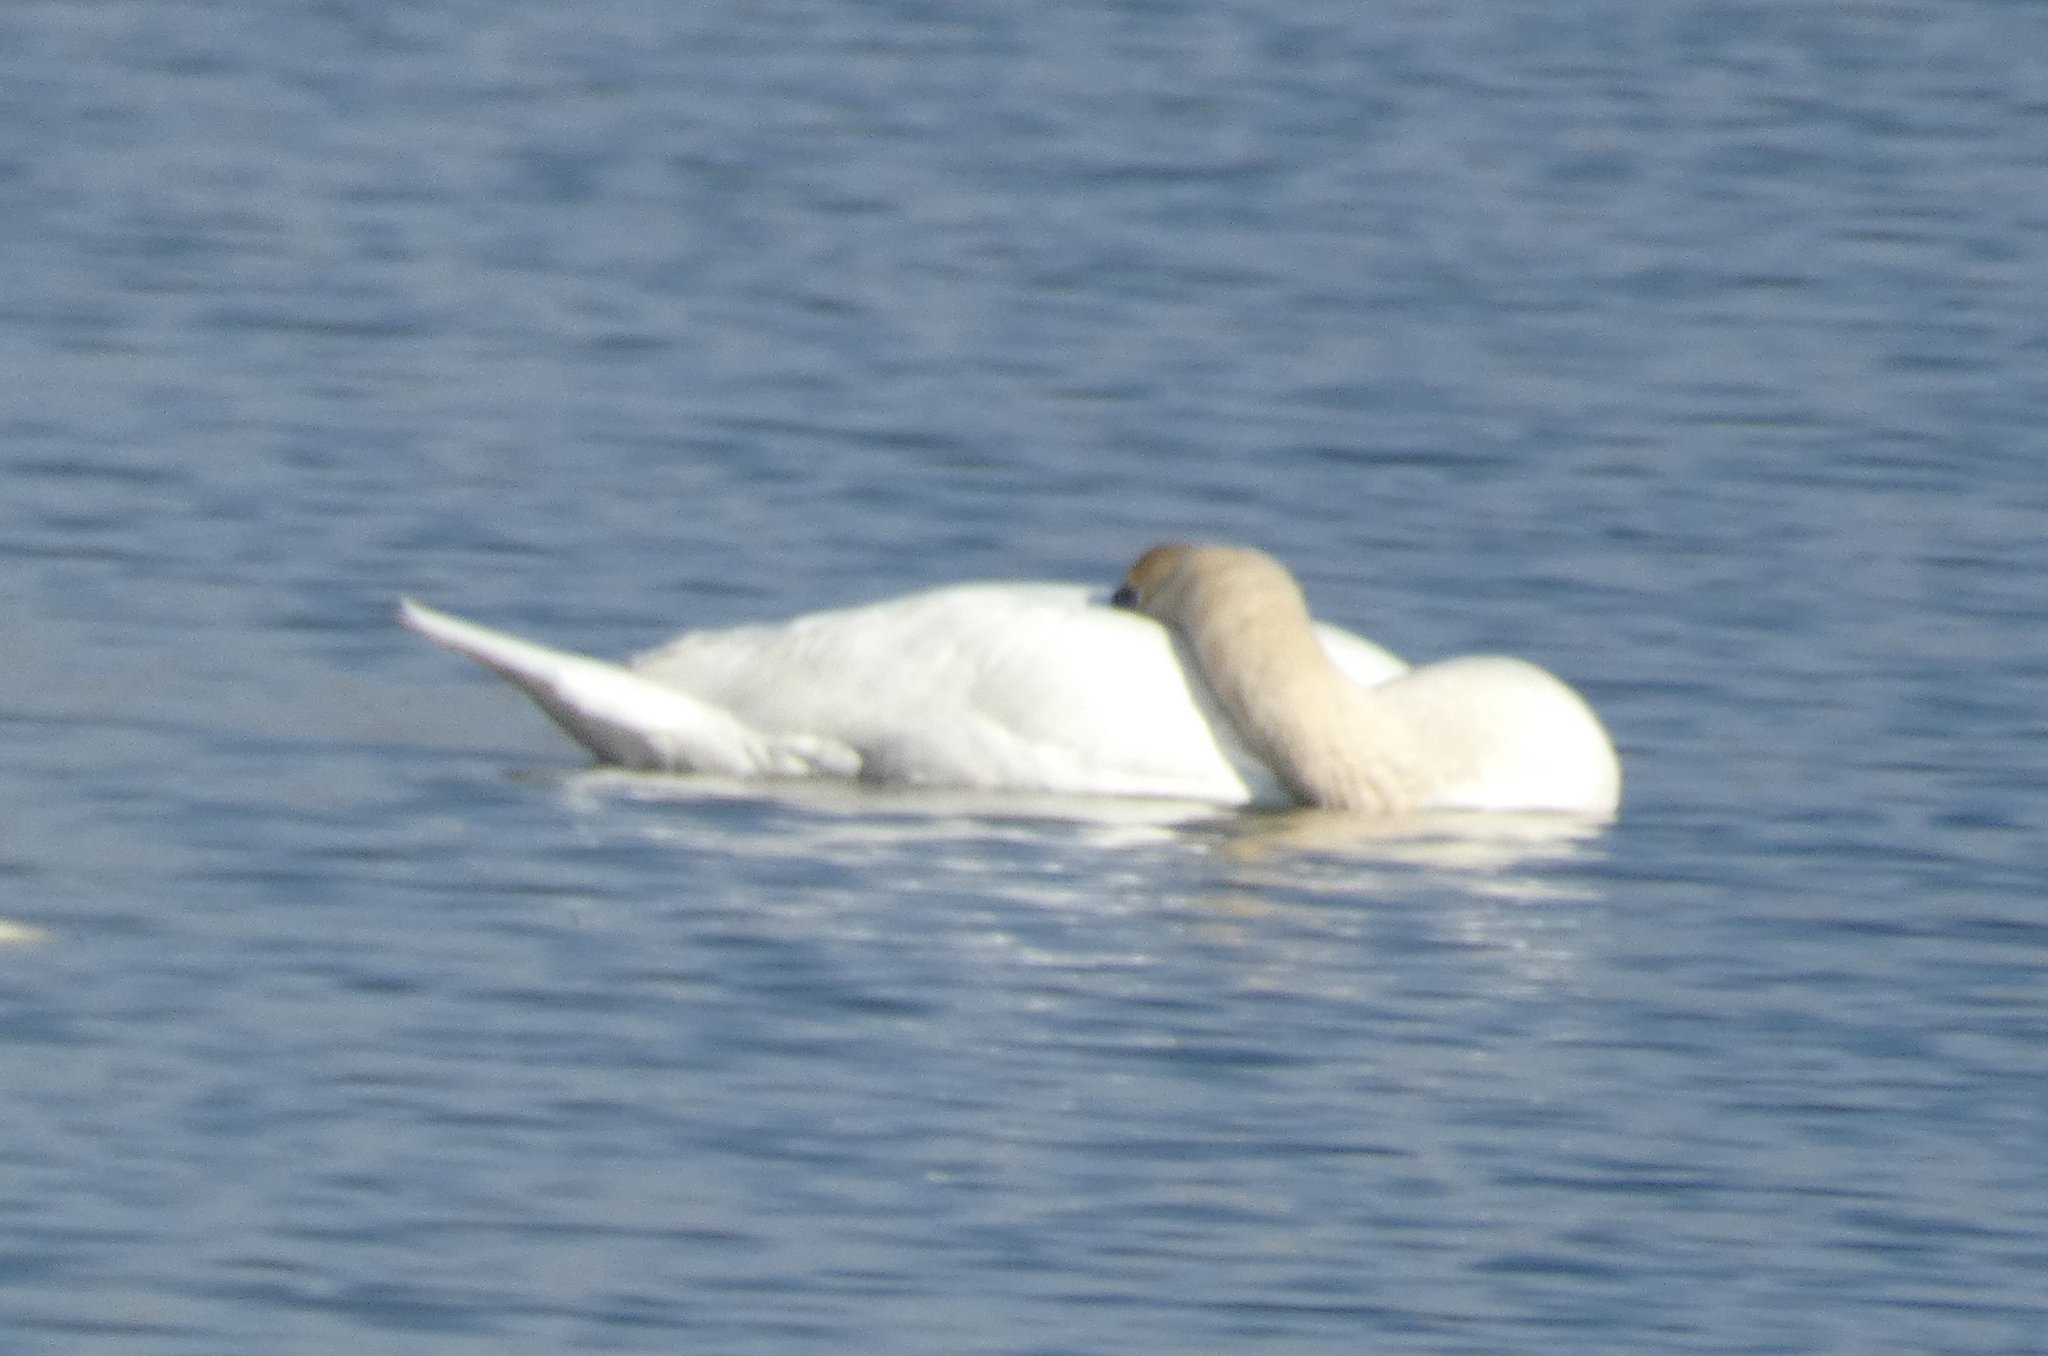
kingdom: Animalia
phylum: Chordata
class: Aves
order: Anseriformes
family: Anatidae
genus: Cygnus
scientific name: Cygnus olor
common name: Mute swan
